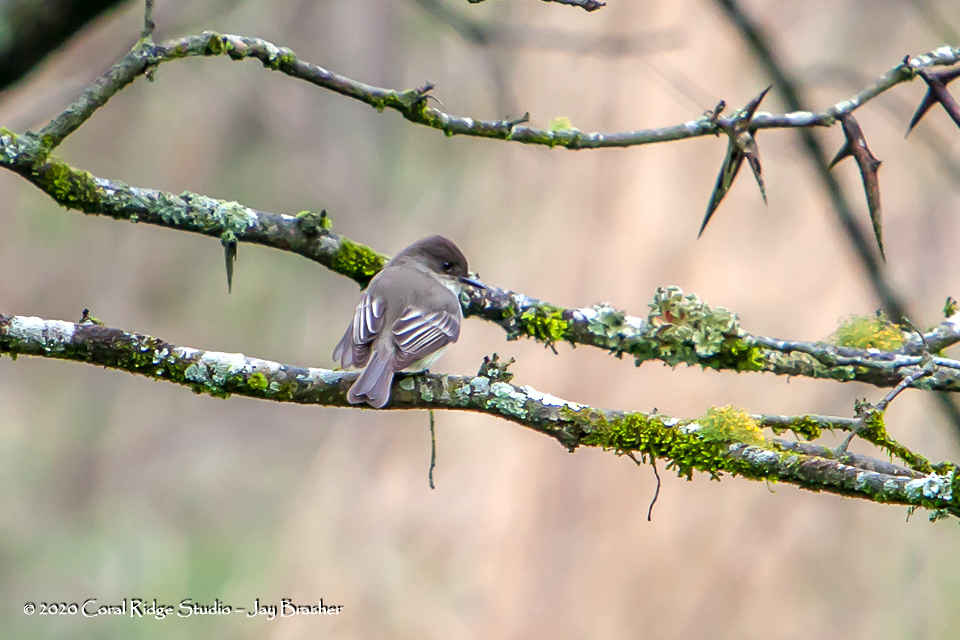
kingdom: Animalia
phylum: Chordata
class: Aves
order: Passeriformes
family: Tyrannidae
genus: Sayornis
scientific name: Sayornis phoebe
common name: Eastern phoebe
